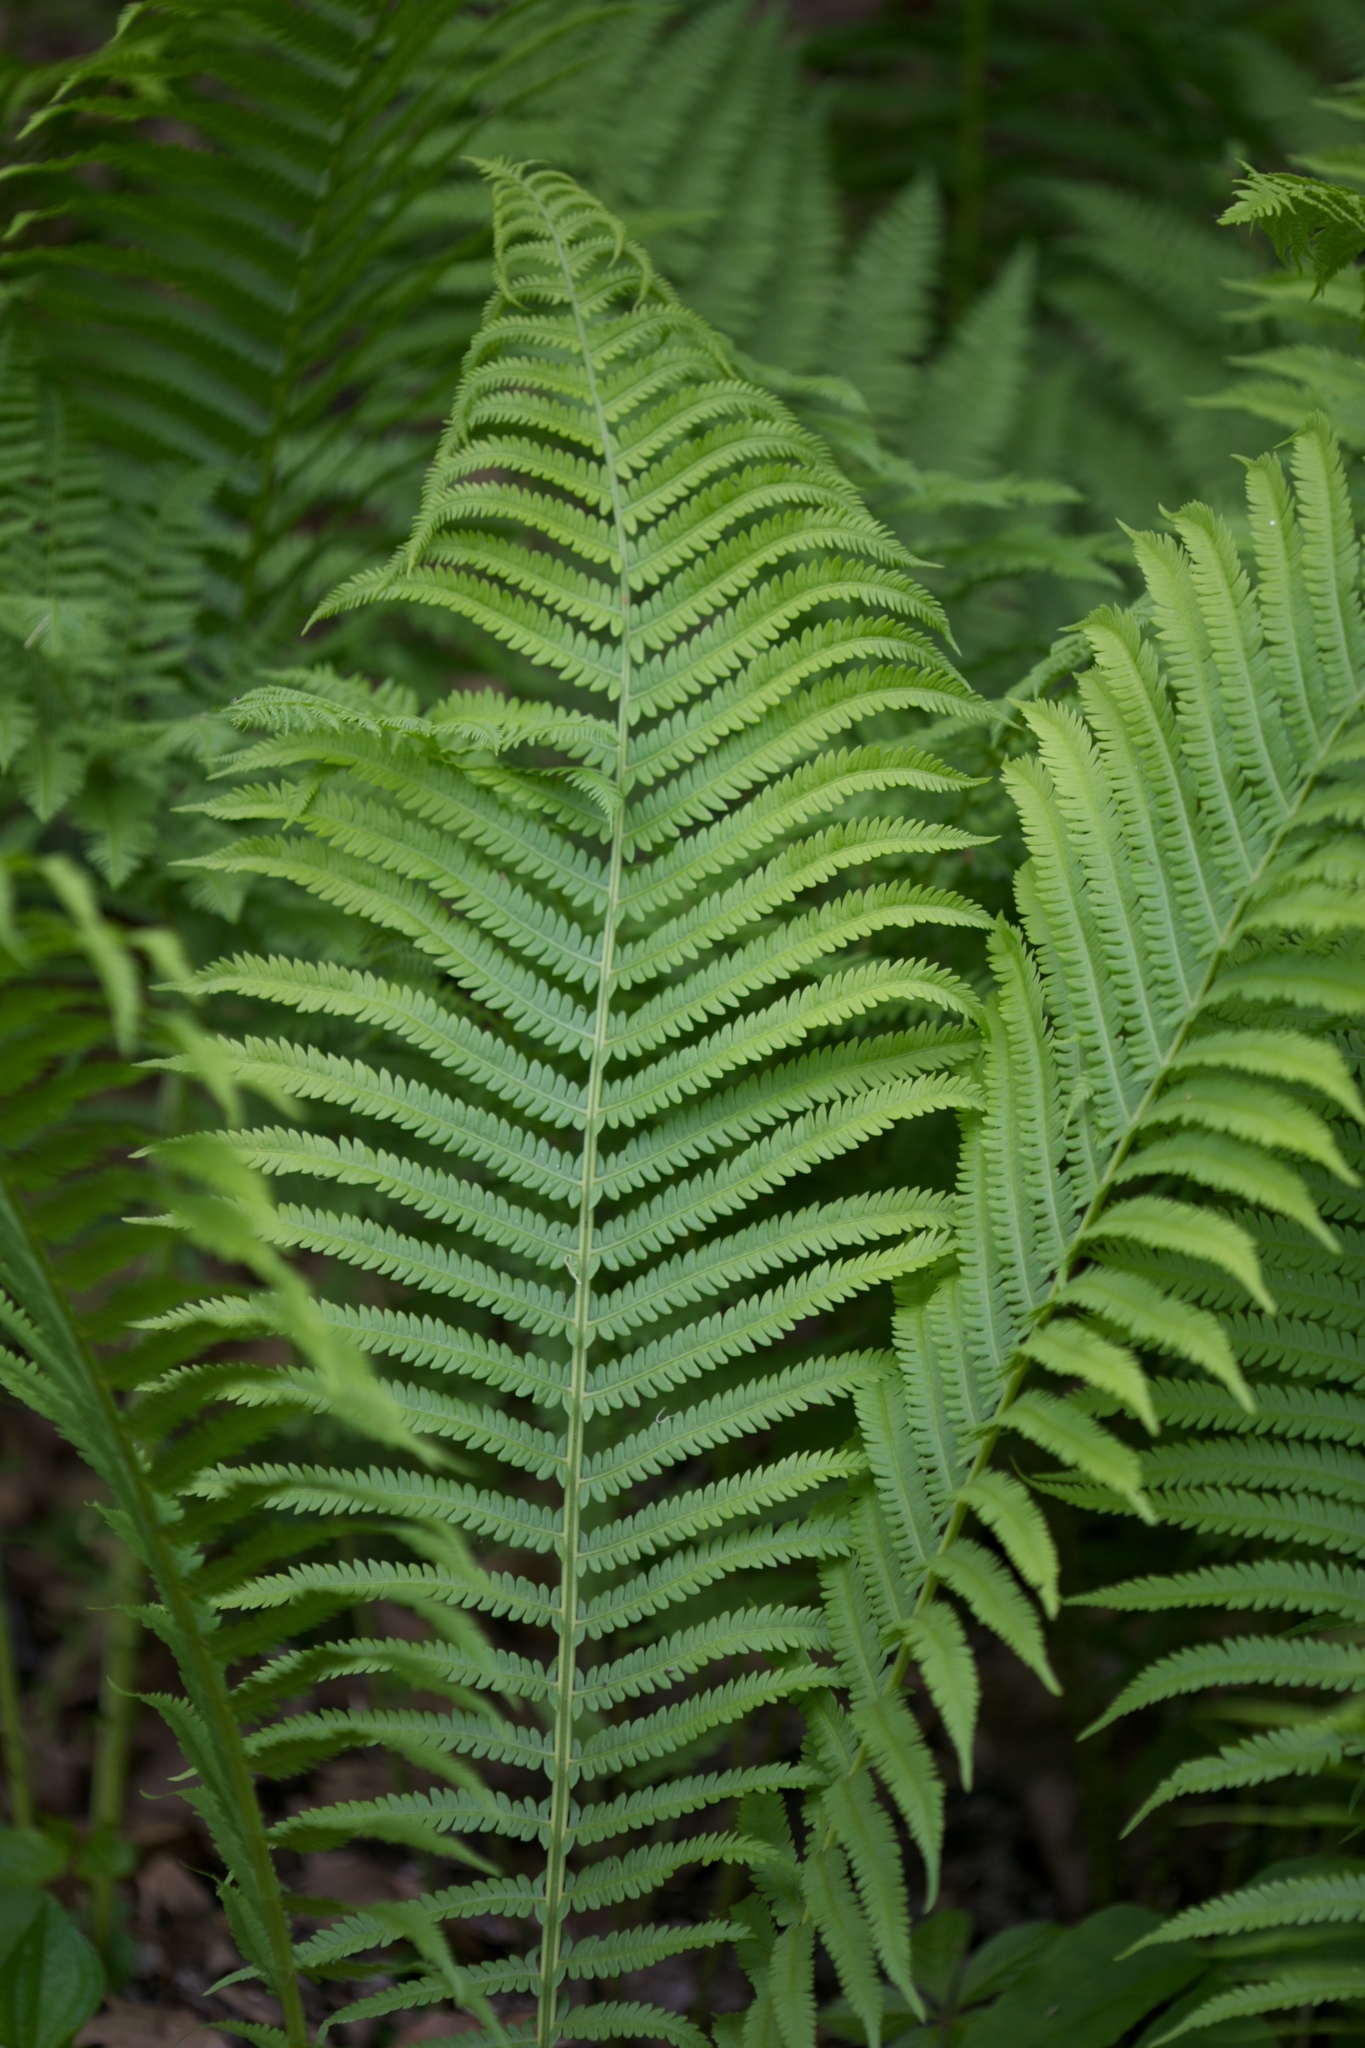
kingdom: Plantae
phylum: Tracheophyta
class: Polypodiopsida
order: Polypodiales
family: Onocleaceae
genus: Matteuccia
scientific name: Matteuccia struthiopteris
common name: Ostrich fern
